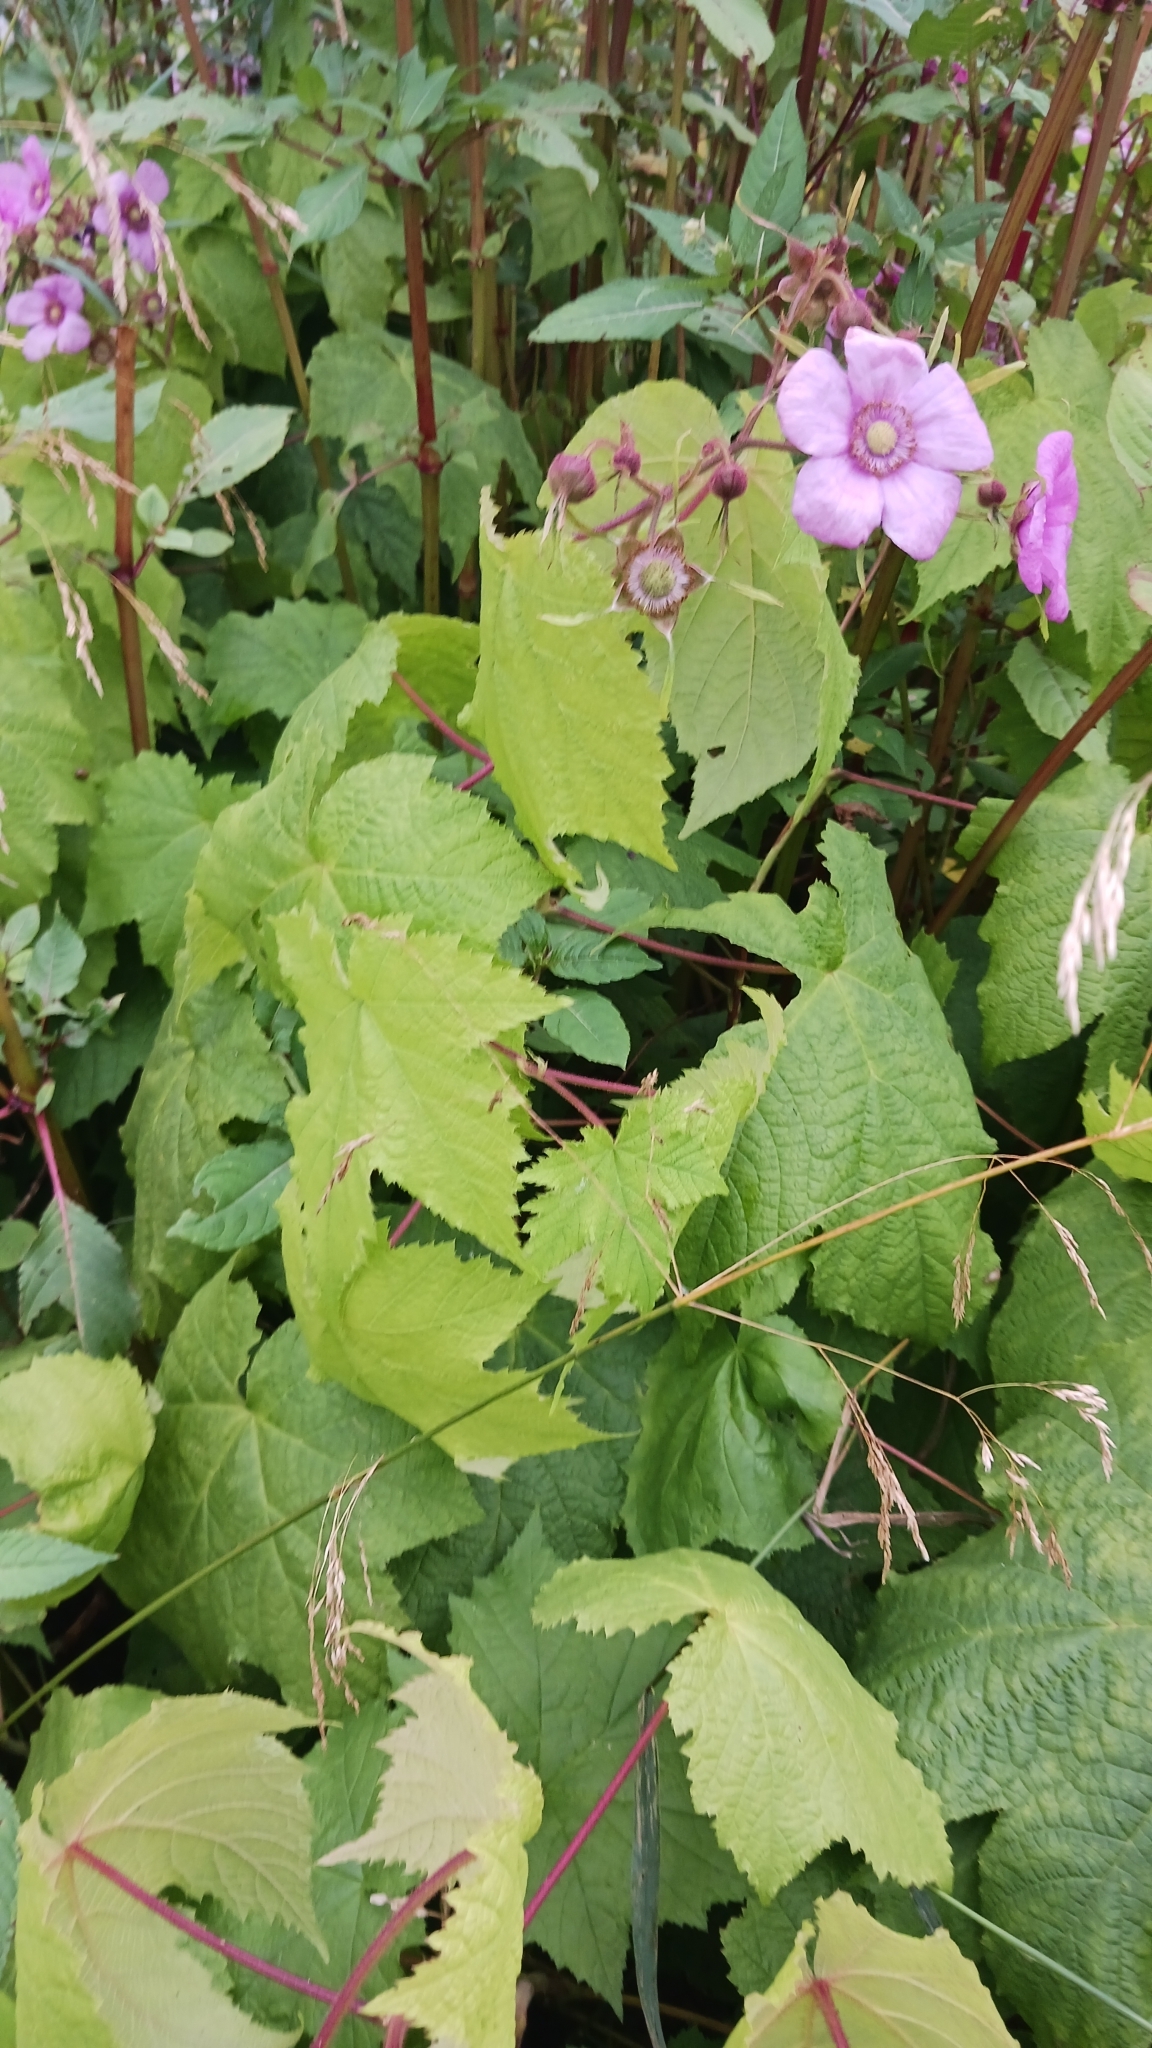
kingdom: Plantae
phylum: Tracheophyta
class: Magnoliopsida
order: Rosales
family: Rosaceae
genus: Rubus
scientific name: Rubus odoratus
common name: Purple-flowered raspberry
